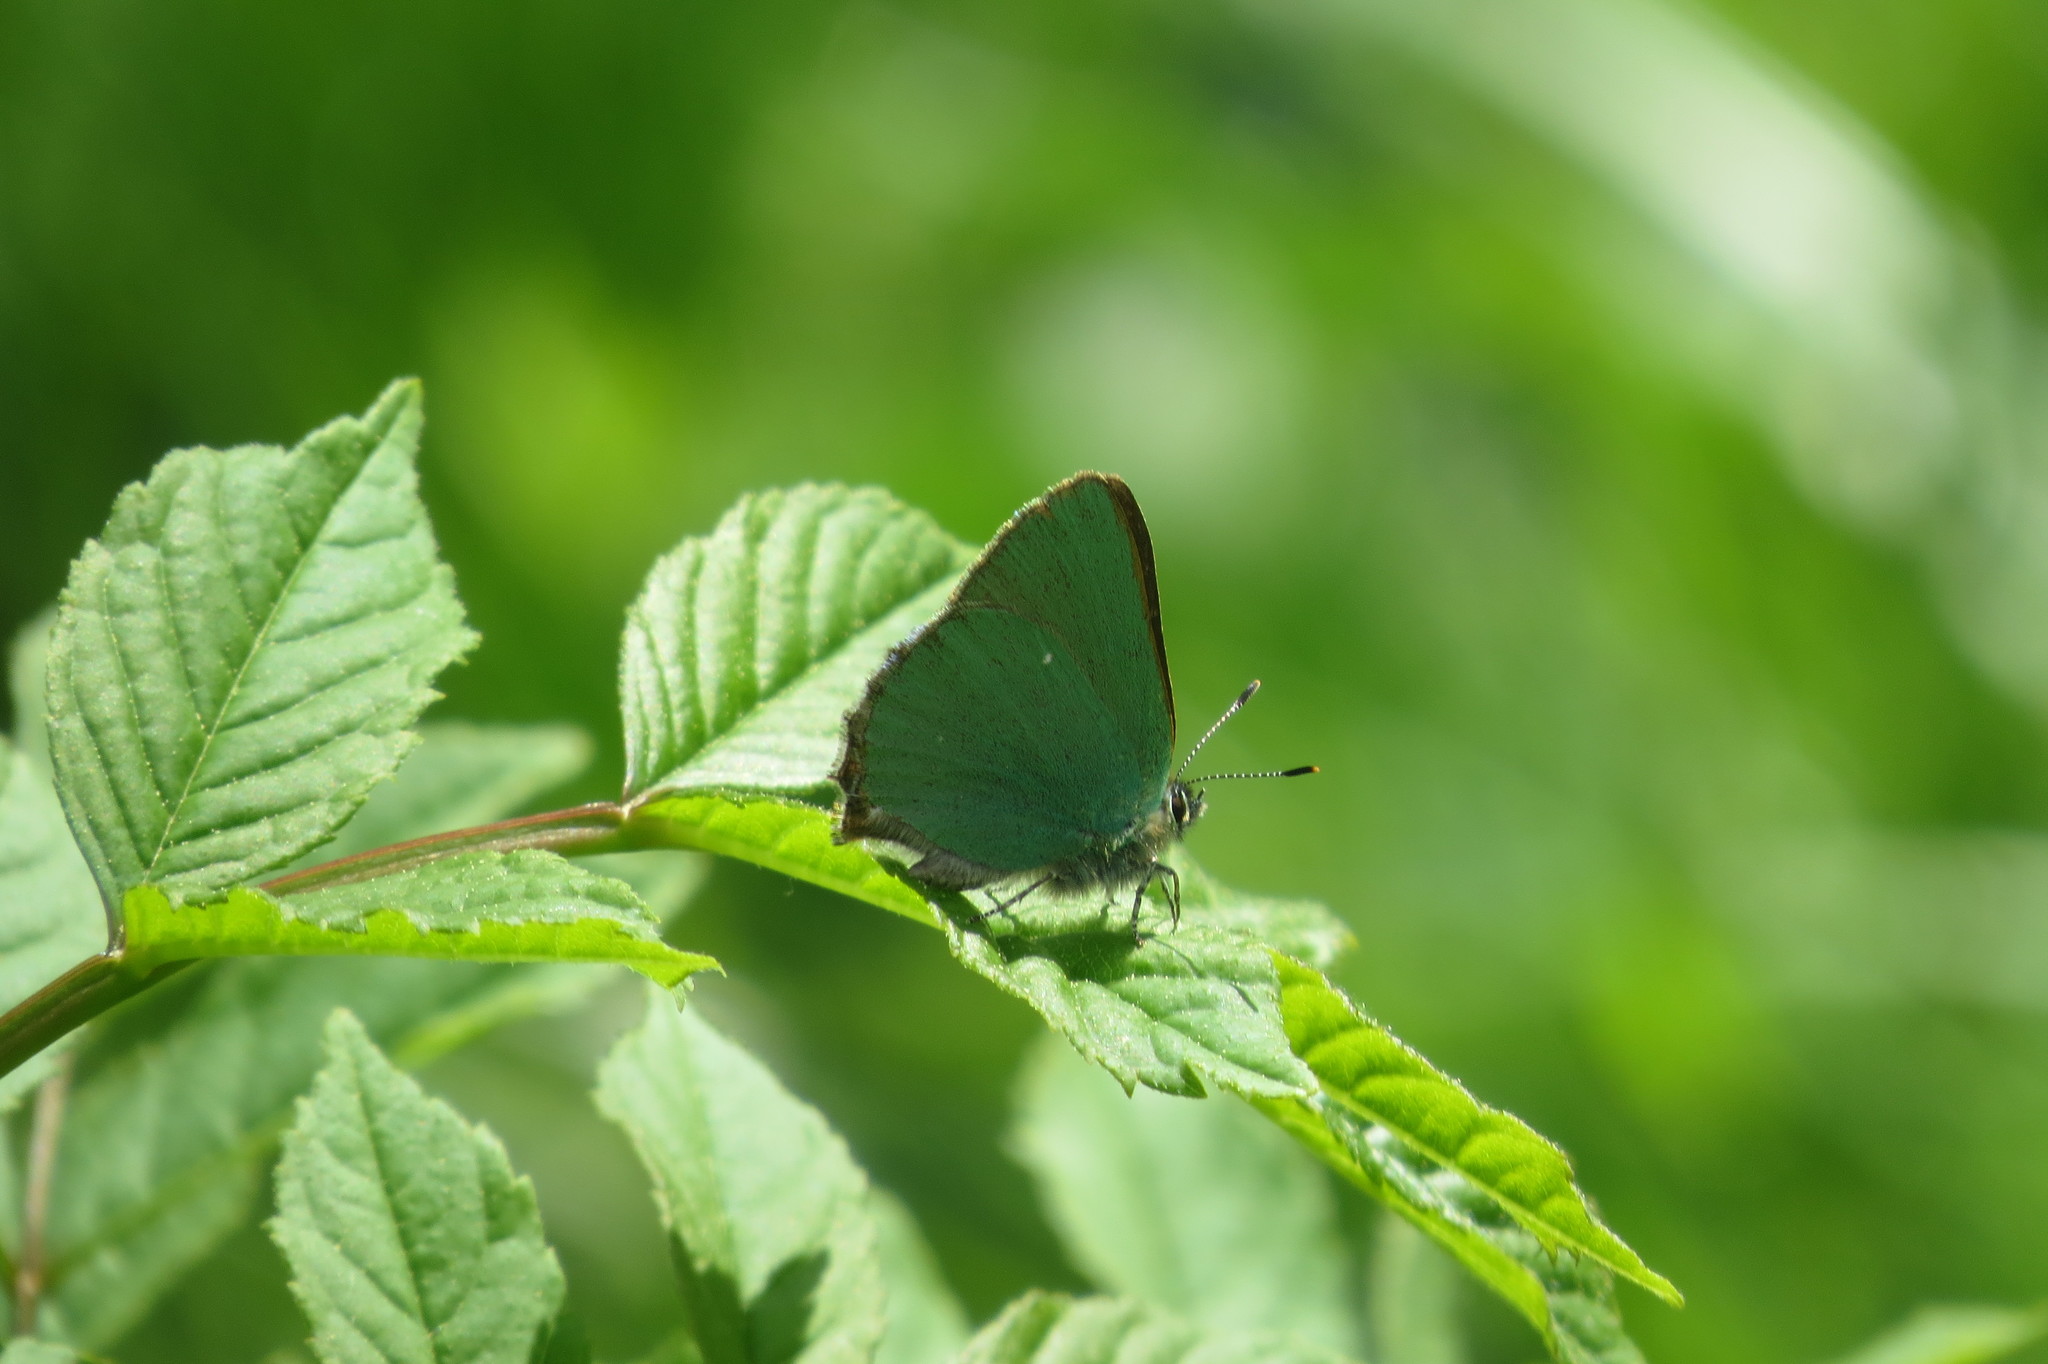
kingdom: Animalia
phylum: Arthropoda
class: Insecta
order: Lepidoptera
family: Lycaenidae
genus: Callophrys
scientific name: Callophrys rubi
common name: Green hairstreak
